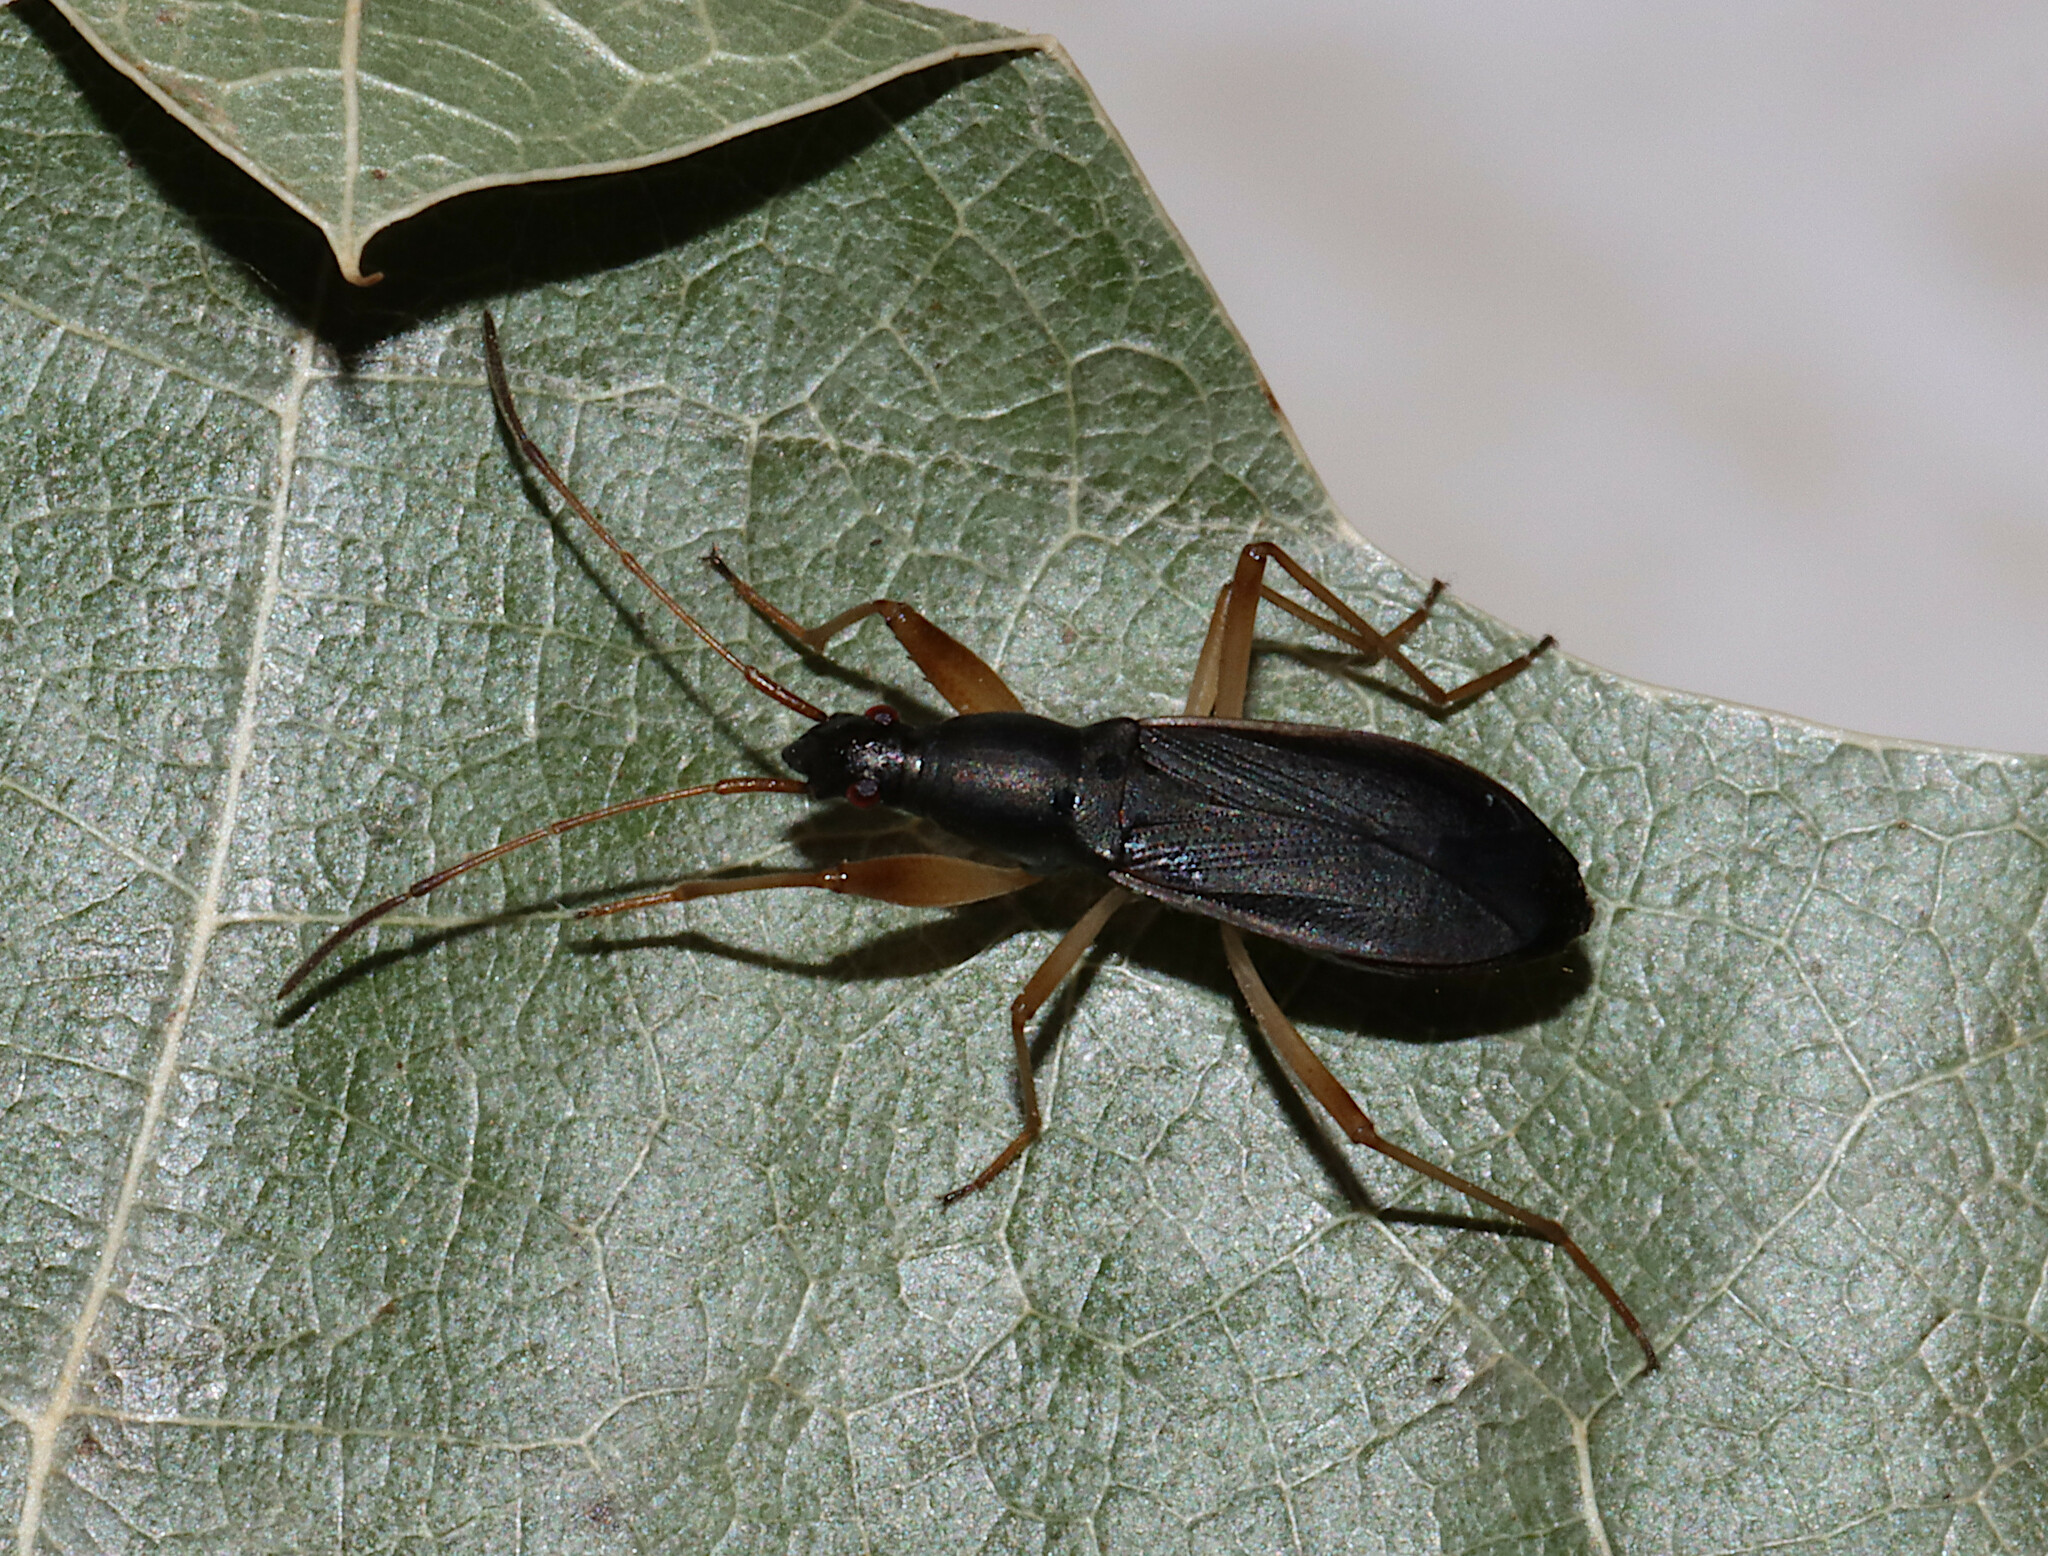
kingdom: Animalia
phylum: Arthropoda
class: Insecta
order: Hemiptera
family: Rhyparochromidae
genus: Cnemodus
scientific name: Cnemodus mavortius
